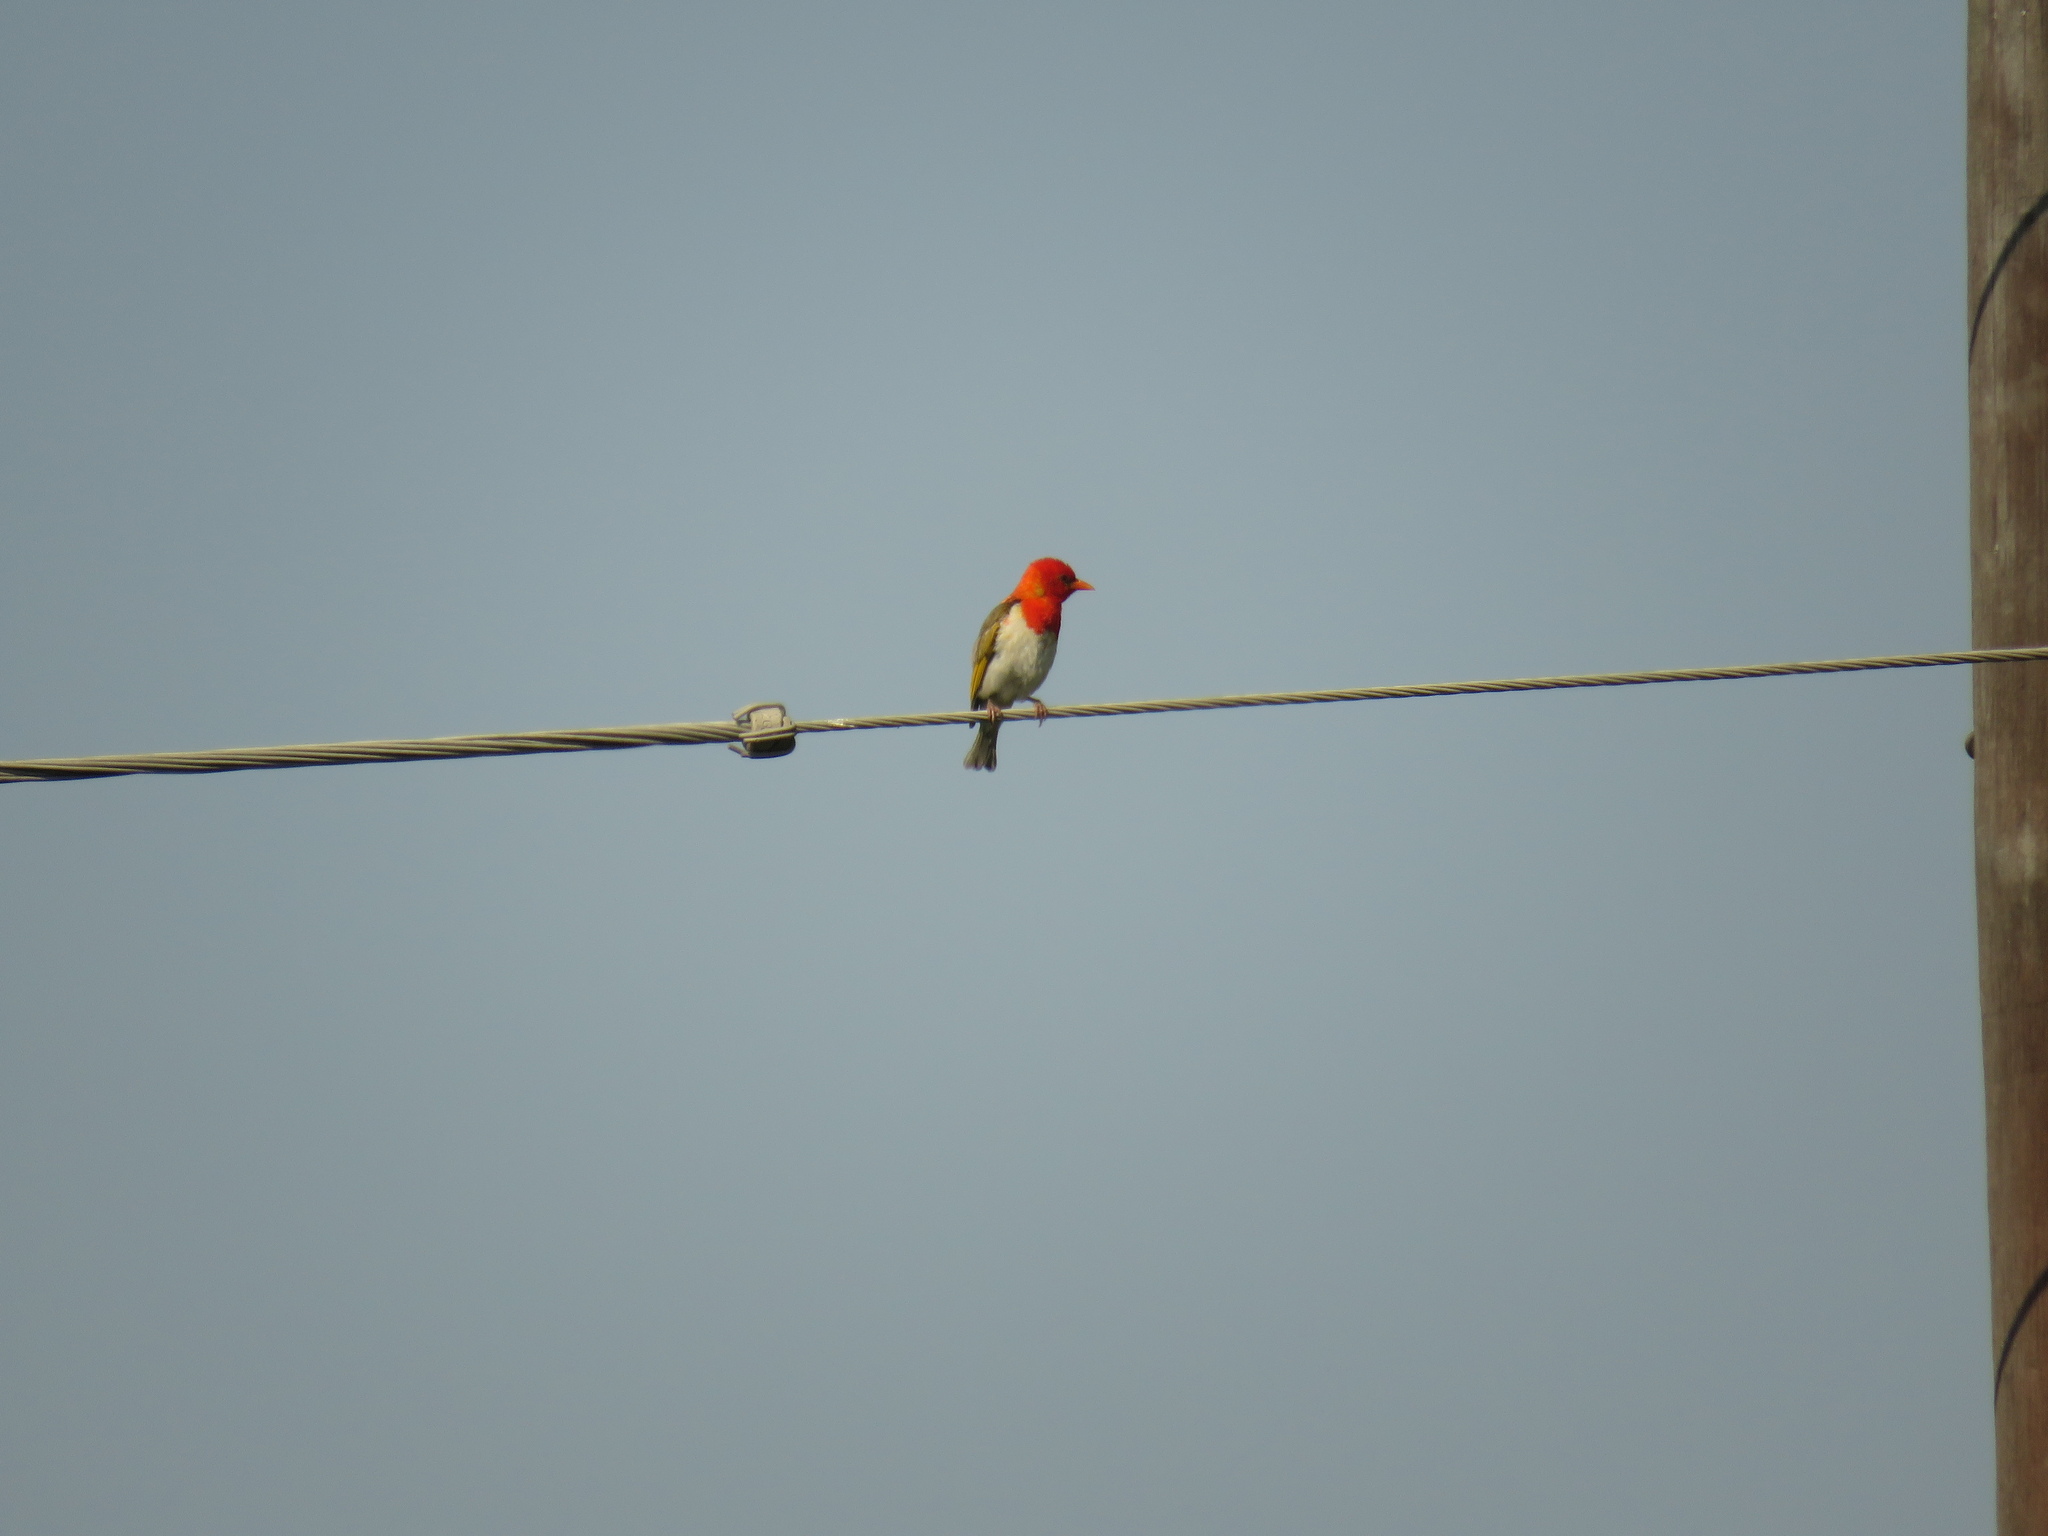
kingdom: Animalia
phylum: Chordata
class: Aves
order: Passeriformes
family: Ploceidae
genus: Anaplectes
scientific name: Anaplectes rubriceps
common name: Red-headed weaver
